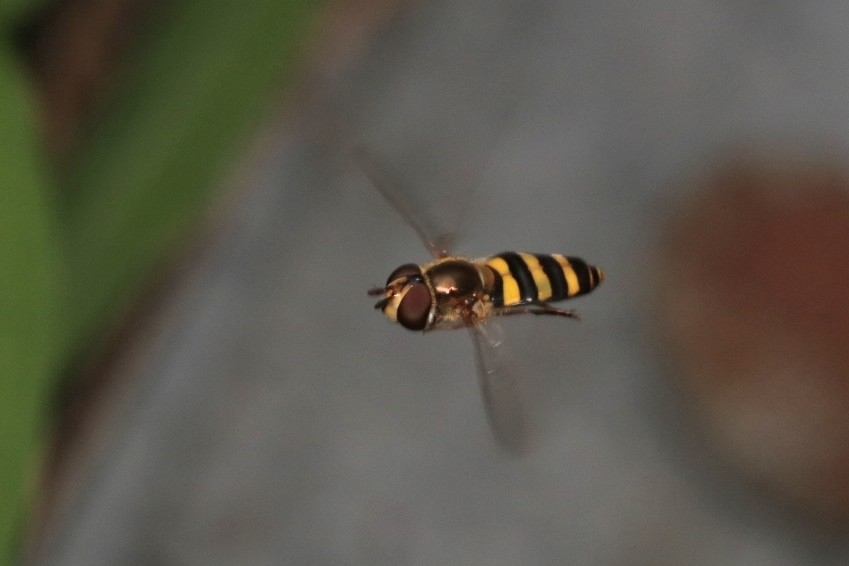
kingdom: Animalia
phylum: Arthropoda
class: Insecta
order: Diptera
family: Syrphidae
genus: Eupeodes
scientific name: Eupeodes
